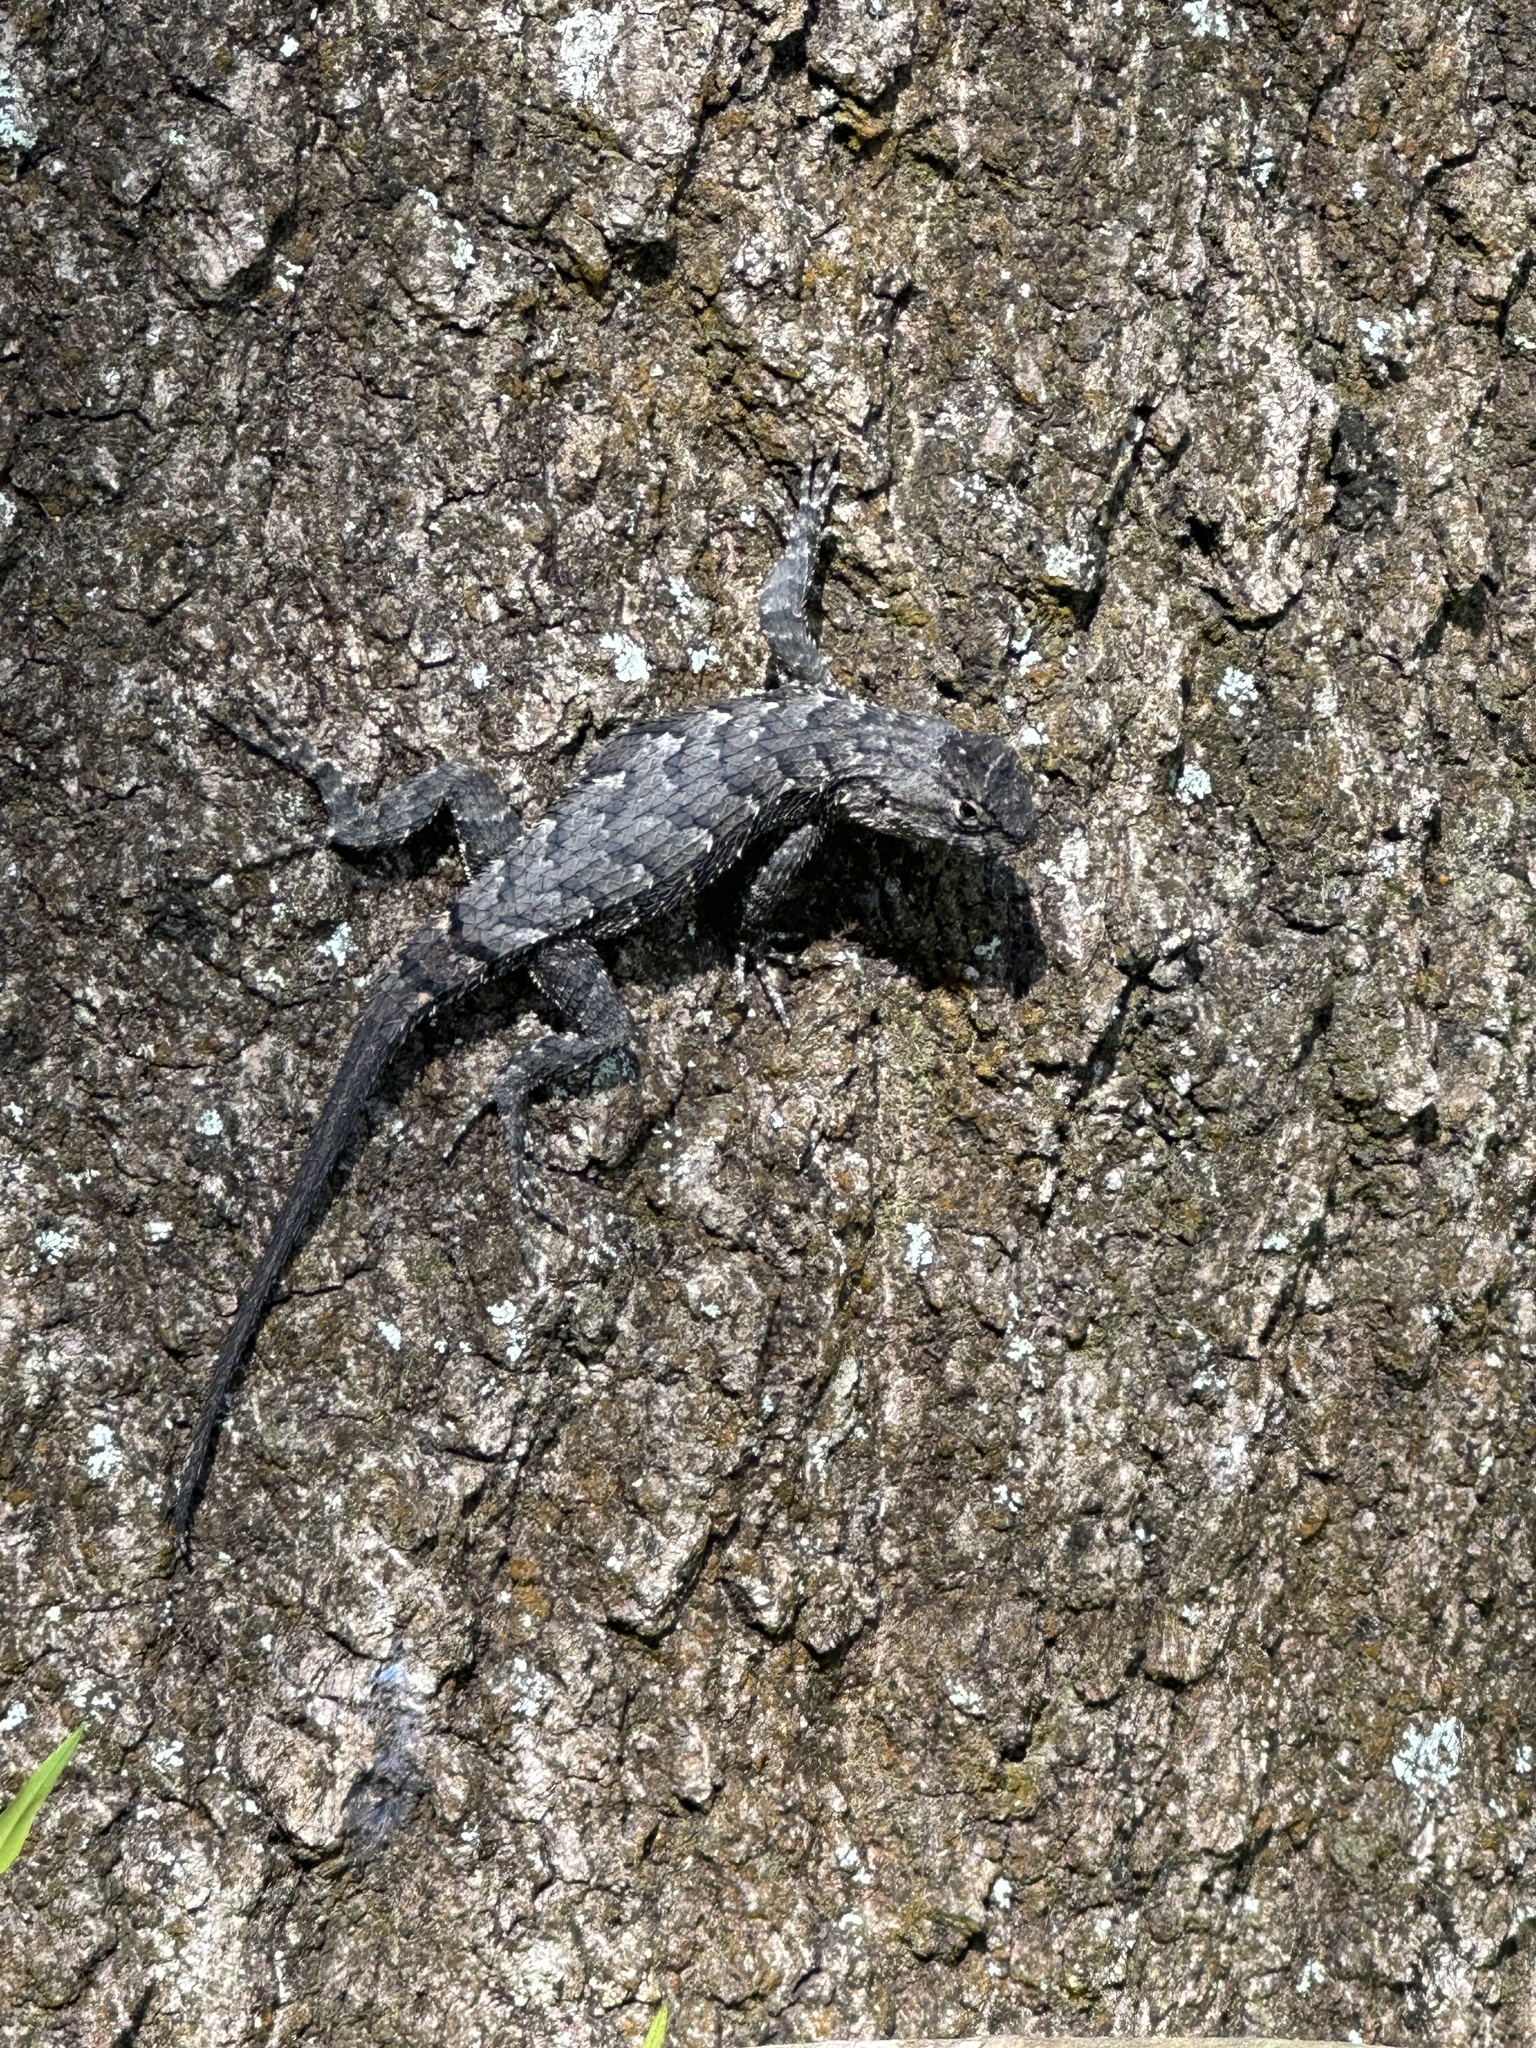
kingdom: Animalia
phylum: Chordata
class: Squamata
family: Phrynosomatidae
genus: Sceloporus
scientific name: Sceloporus undulatus
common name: Eastern fence lizard
